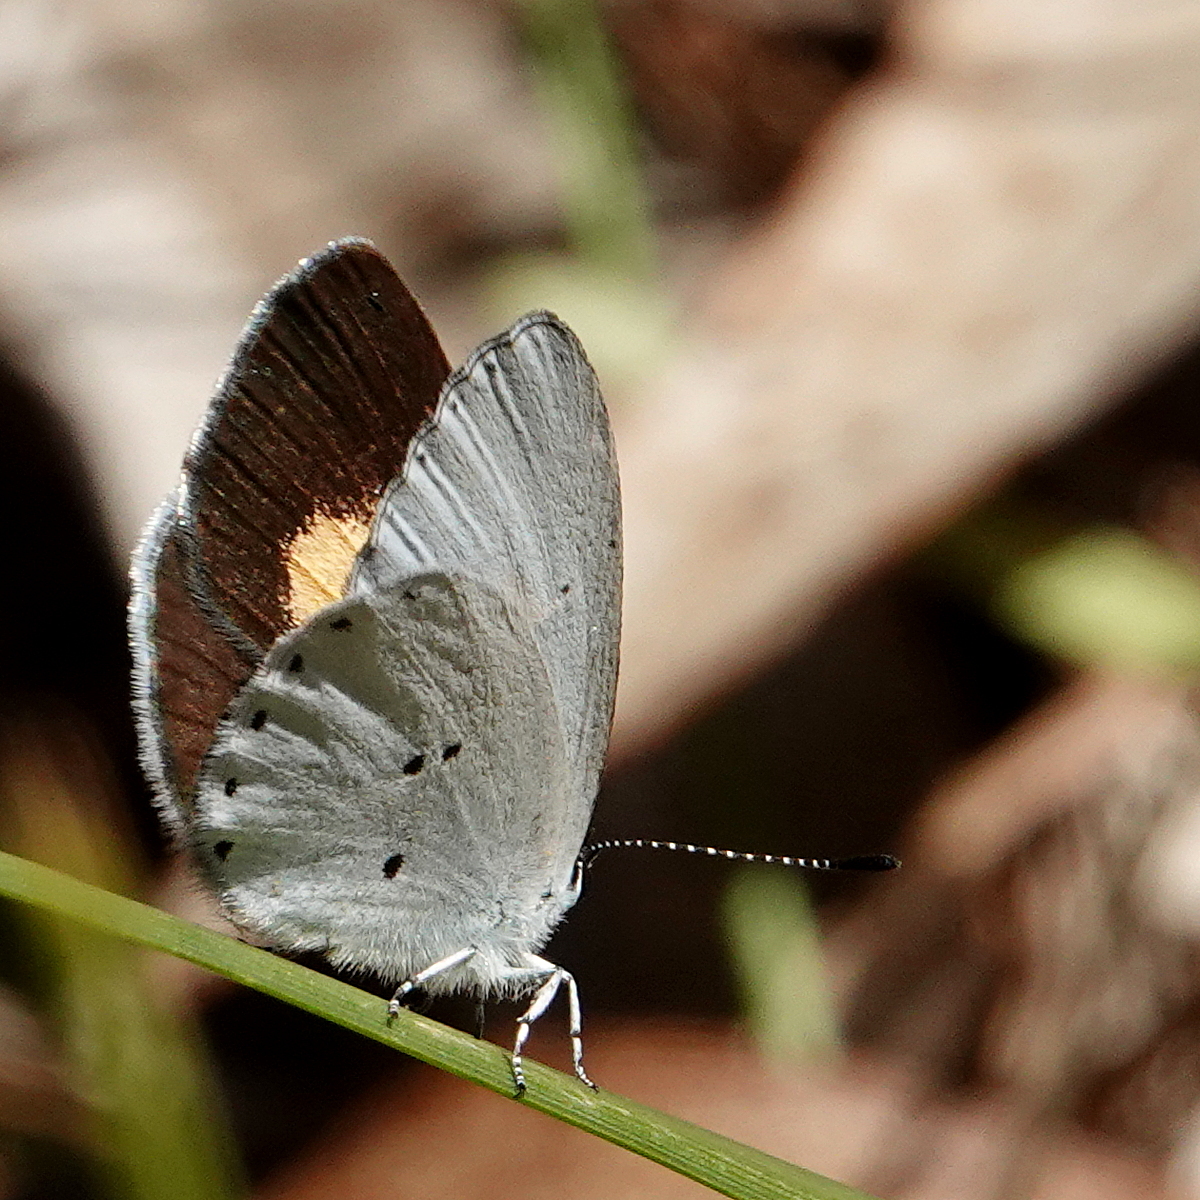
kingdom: Animalia
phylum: Arthropoda
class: Insecta
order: Lepidoptera
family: Lycaenidae
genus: Candalides
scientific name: Candalides xanthospilos
